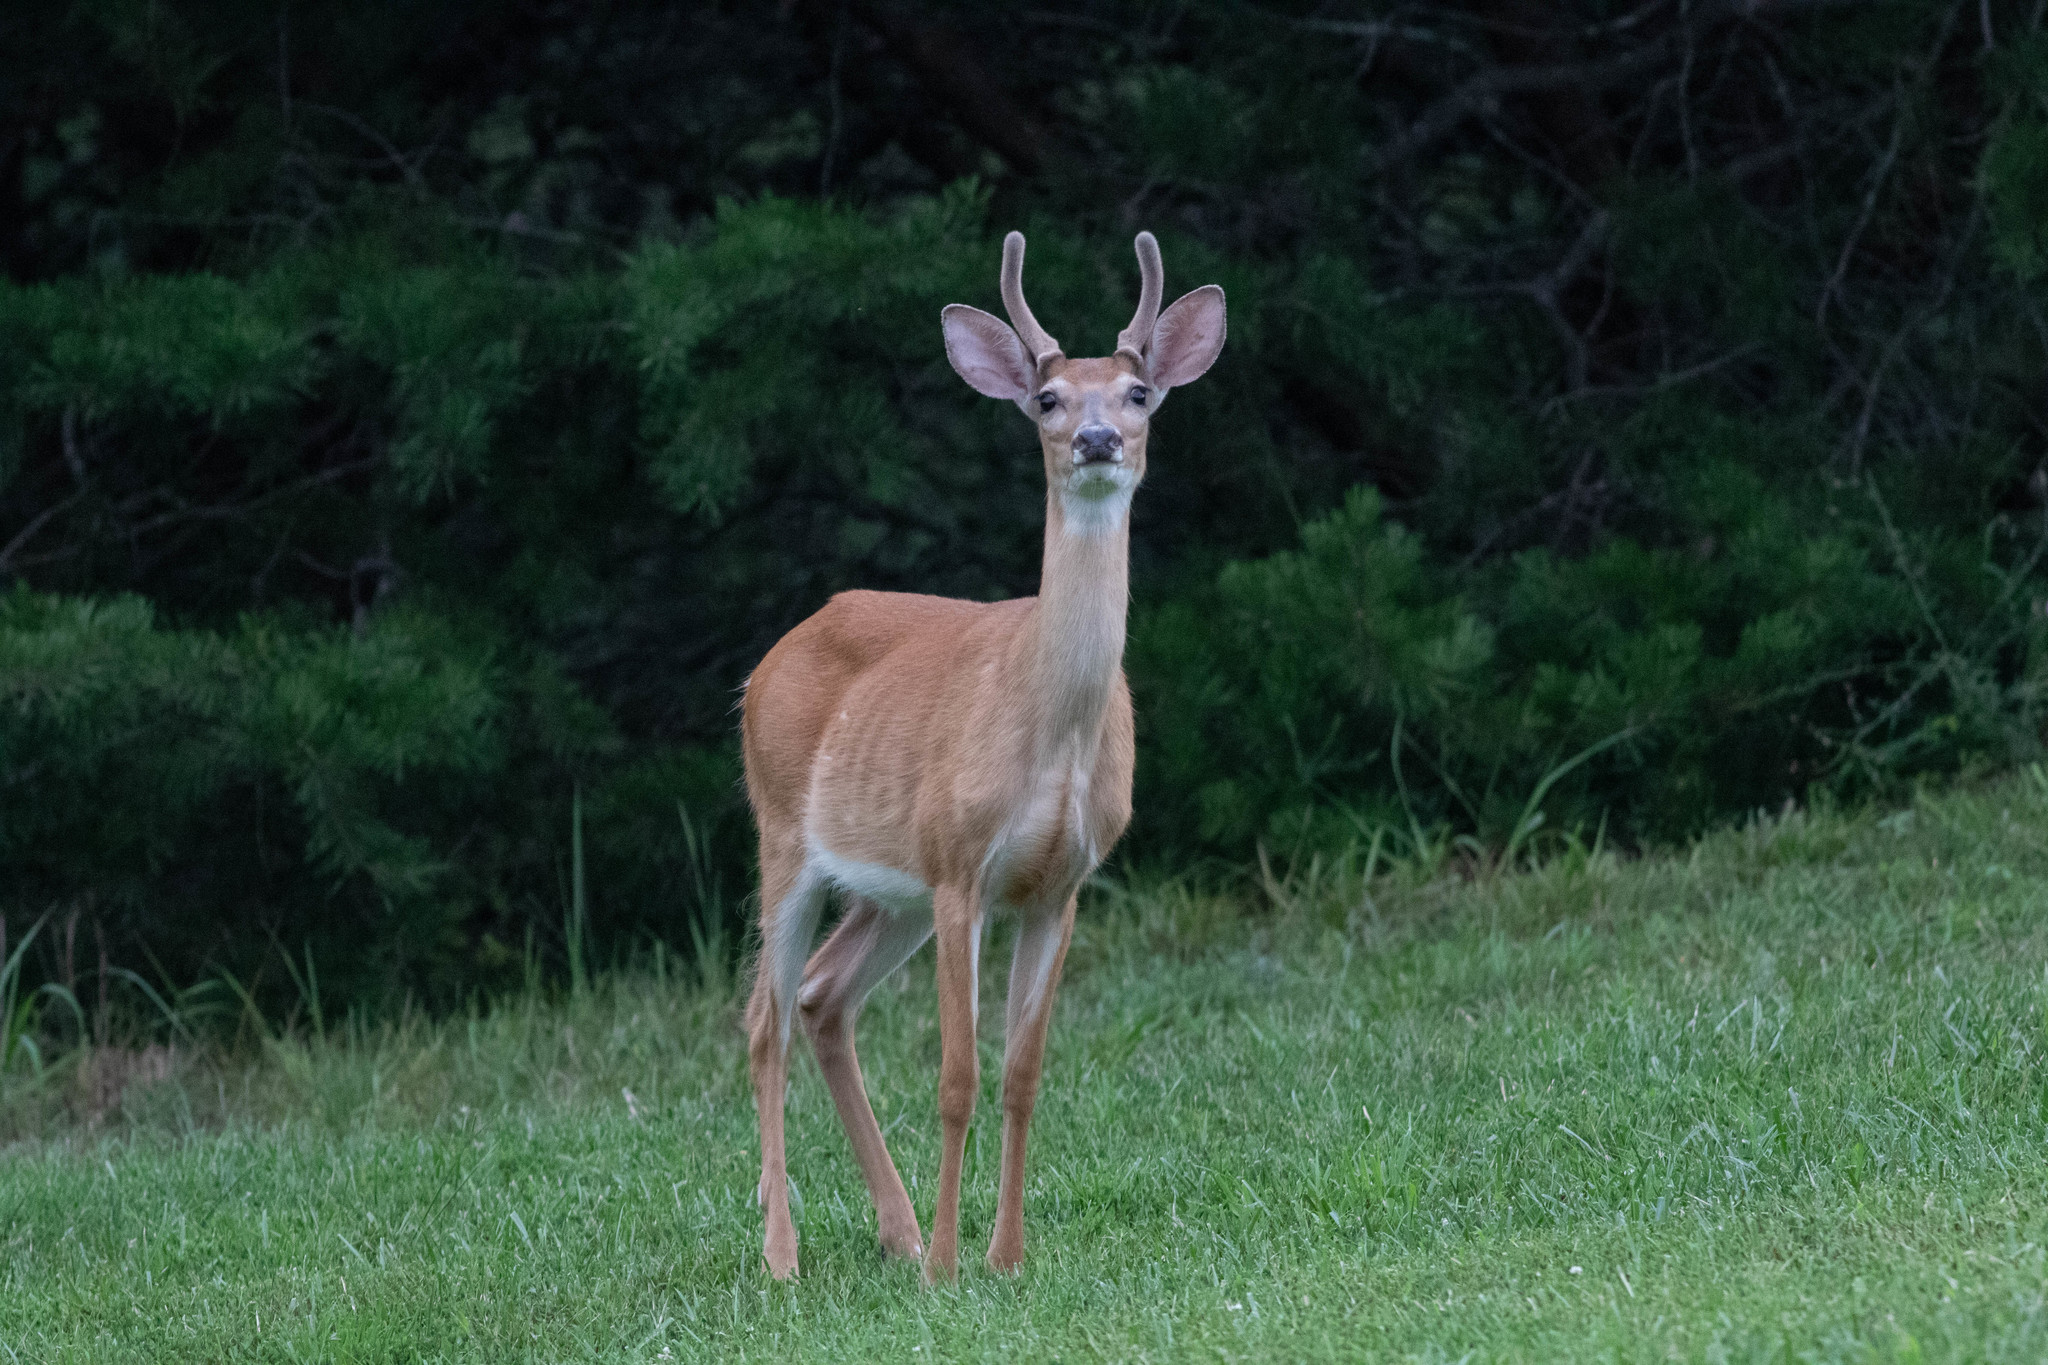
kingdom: Animalia
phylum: Chordata
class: Mammalia
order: Artiodactyla
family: Cervidae
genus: Odocoileus
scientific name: Odocoileus virginianus
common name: White-tailed deer
